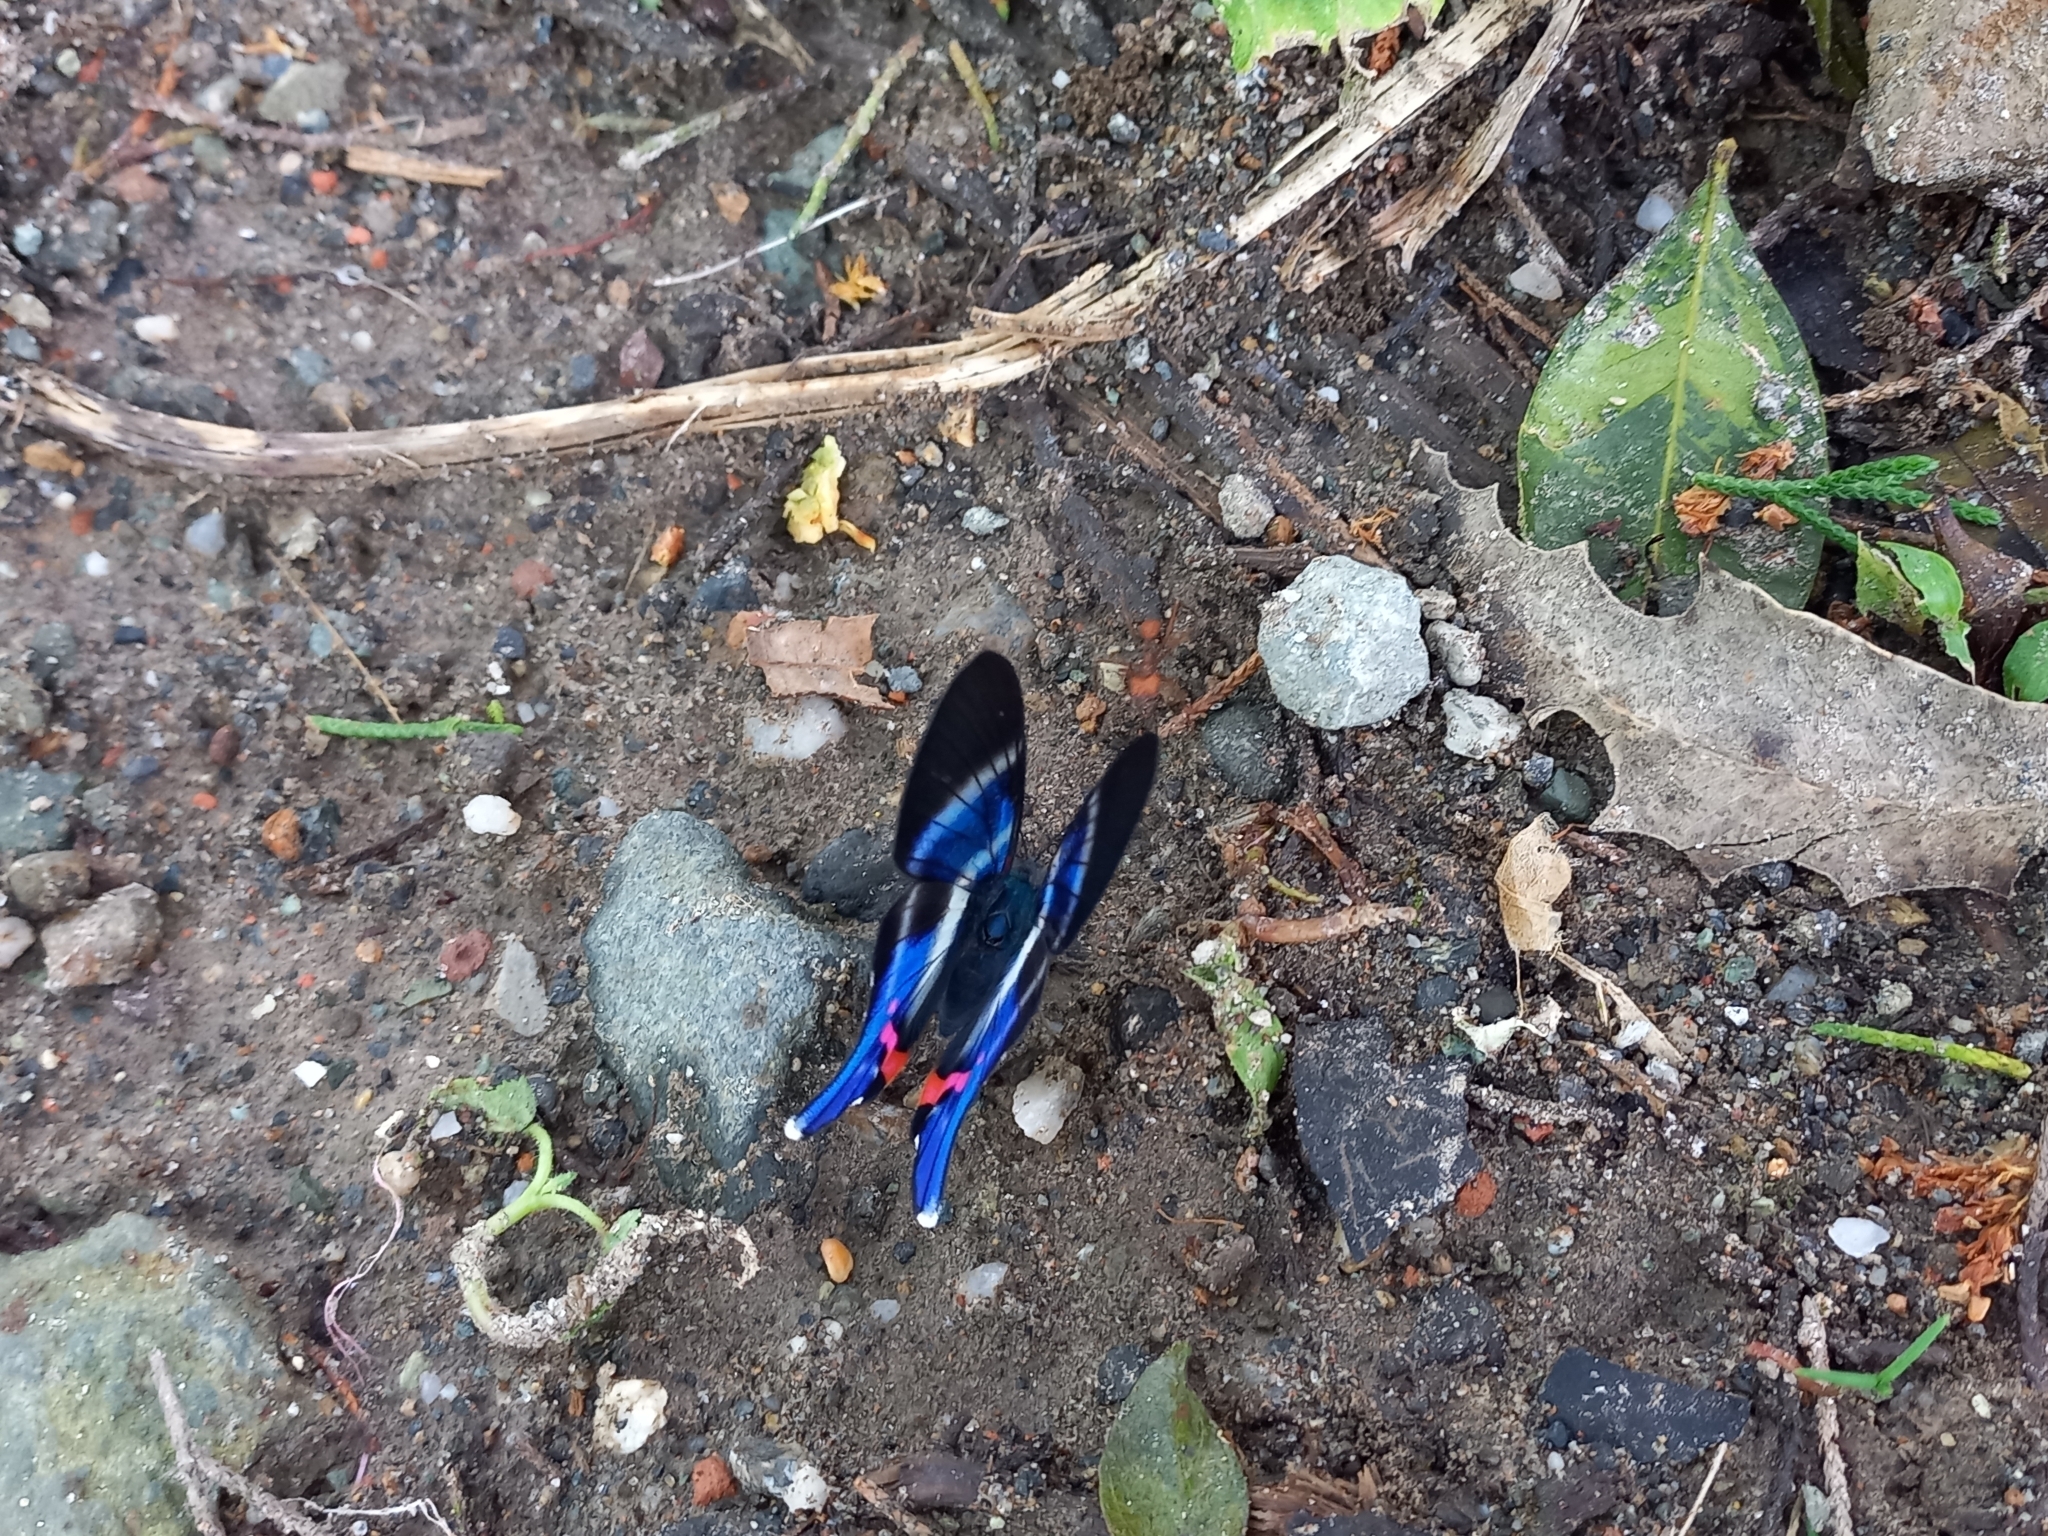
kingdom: Animalia
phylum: Arthropoda
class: Insecta
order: Lepidoptera
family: Riodinidae
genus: Rhetus
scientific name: Rhetus dysonii
